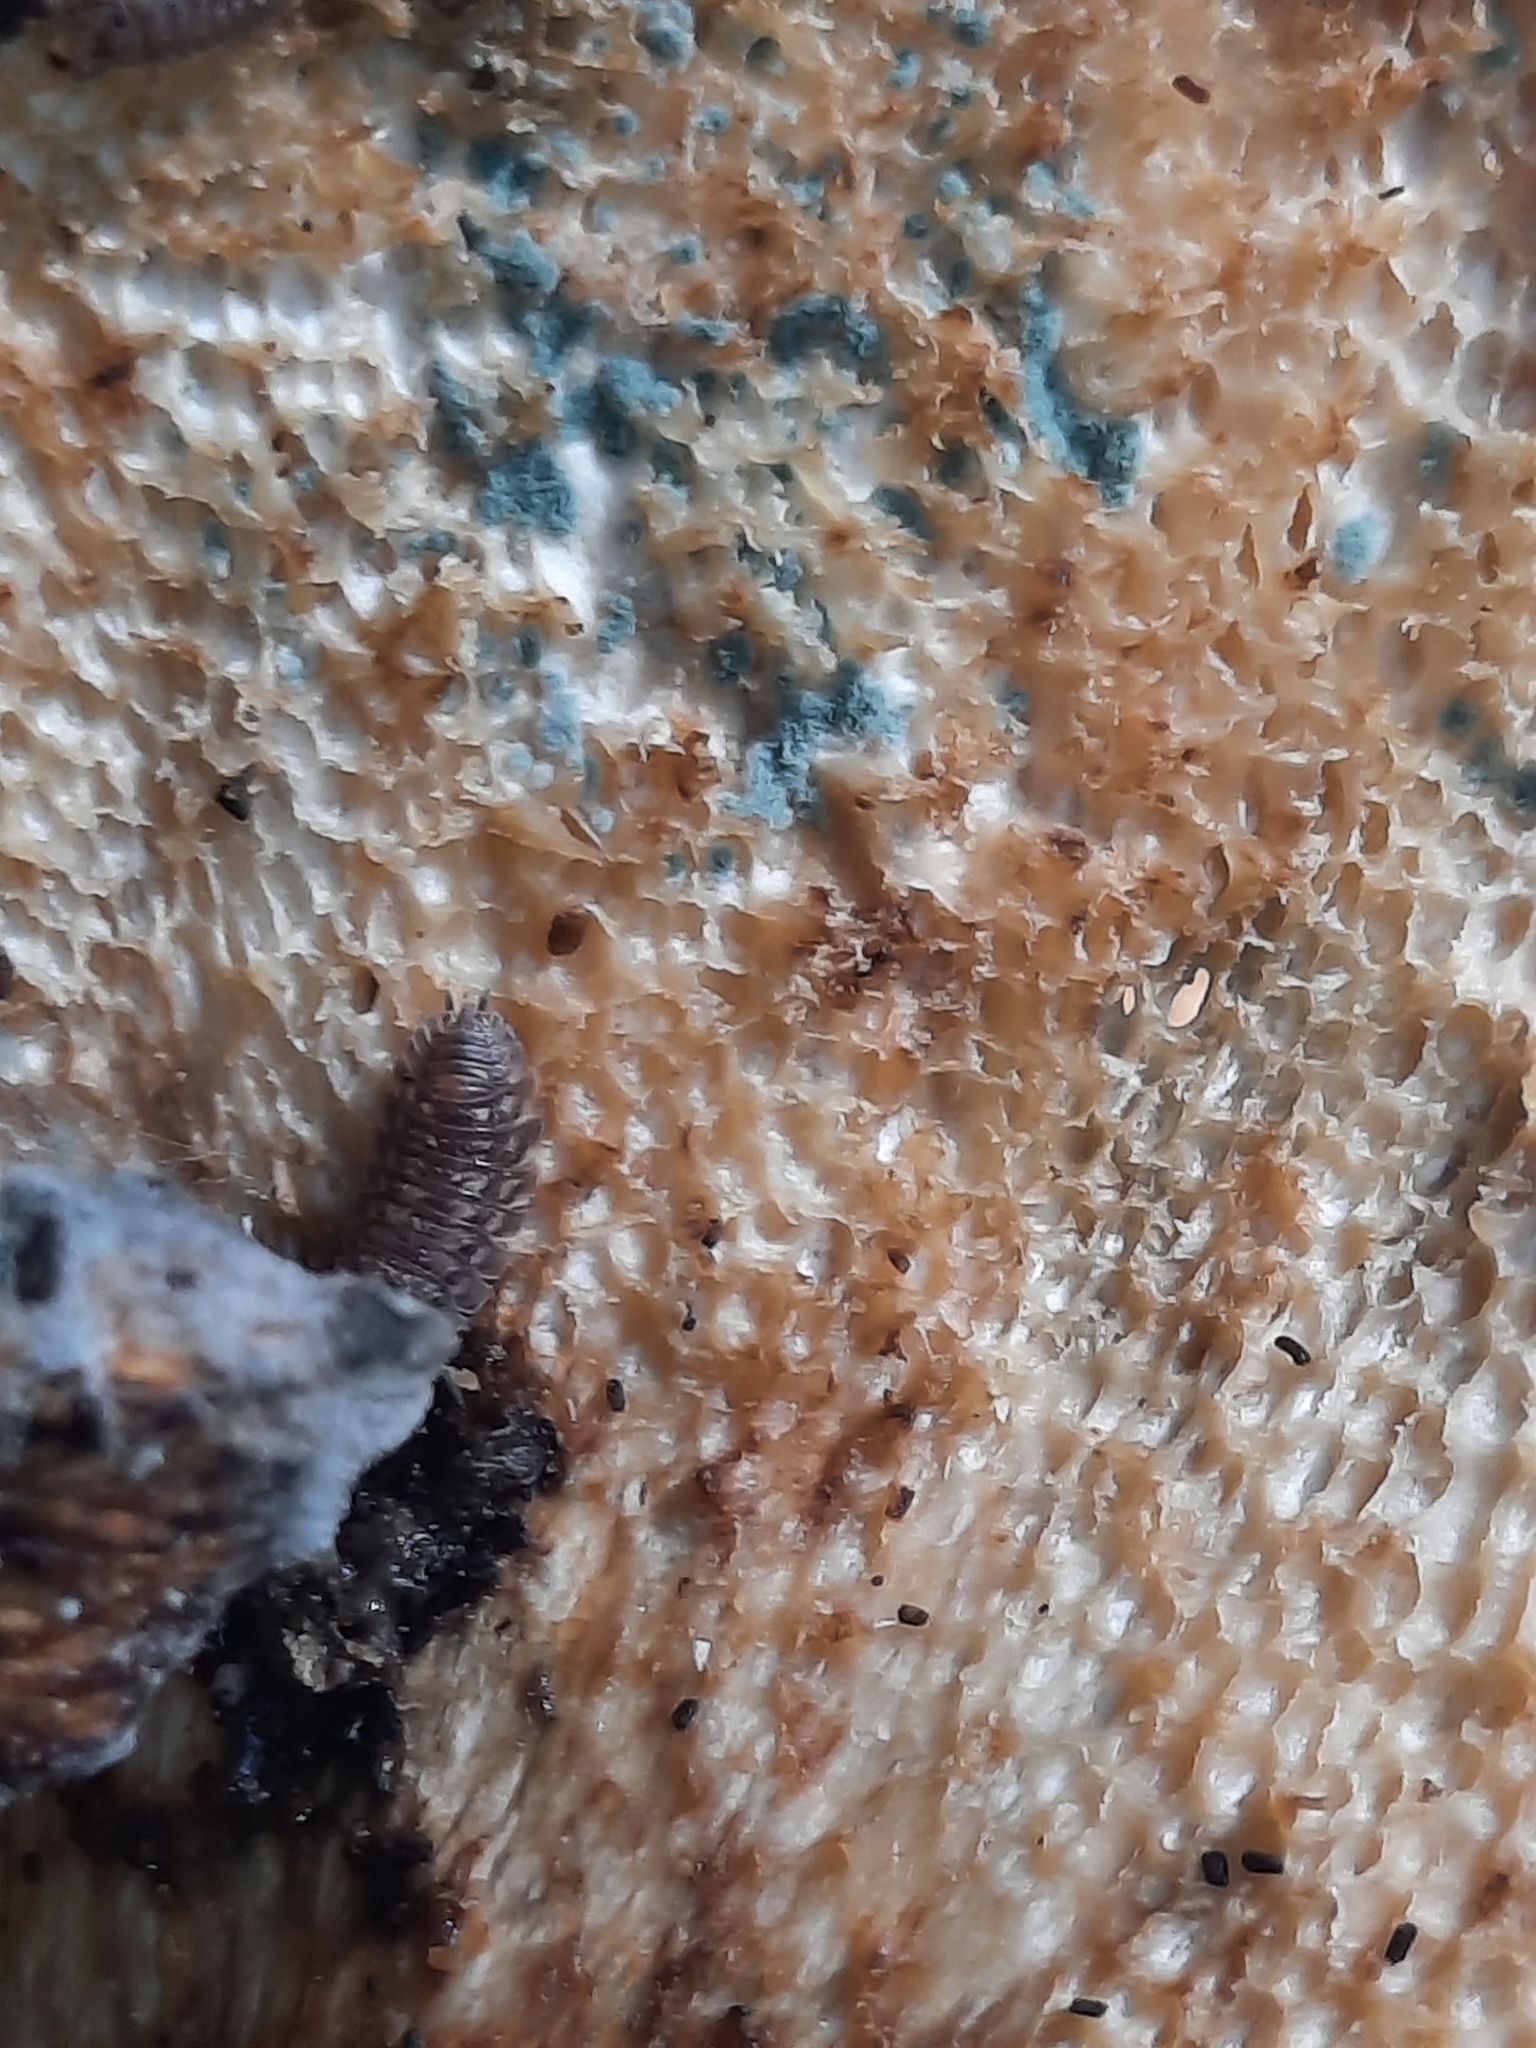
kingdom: Fungi
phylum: Basidiomycota
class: Agaricomycetes
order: Polyporales
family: Polyporaceae
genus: Cerioporus
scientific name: Cerioporus squamosus
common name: Dryad's saddle
